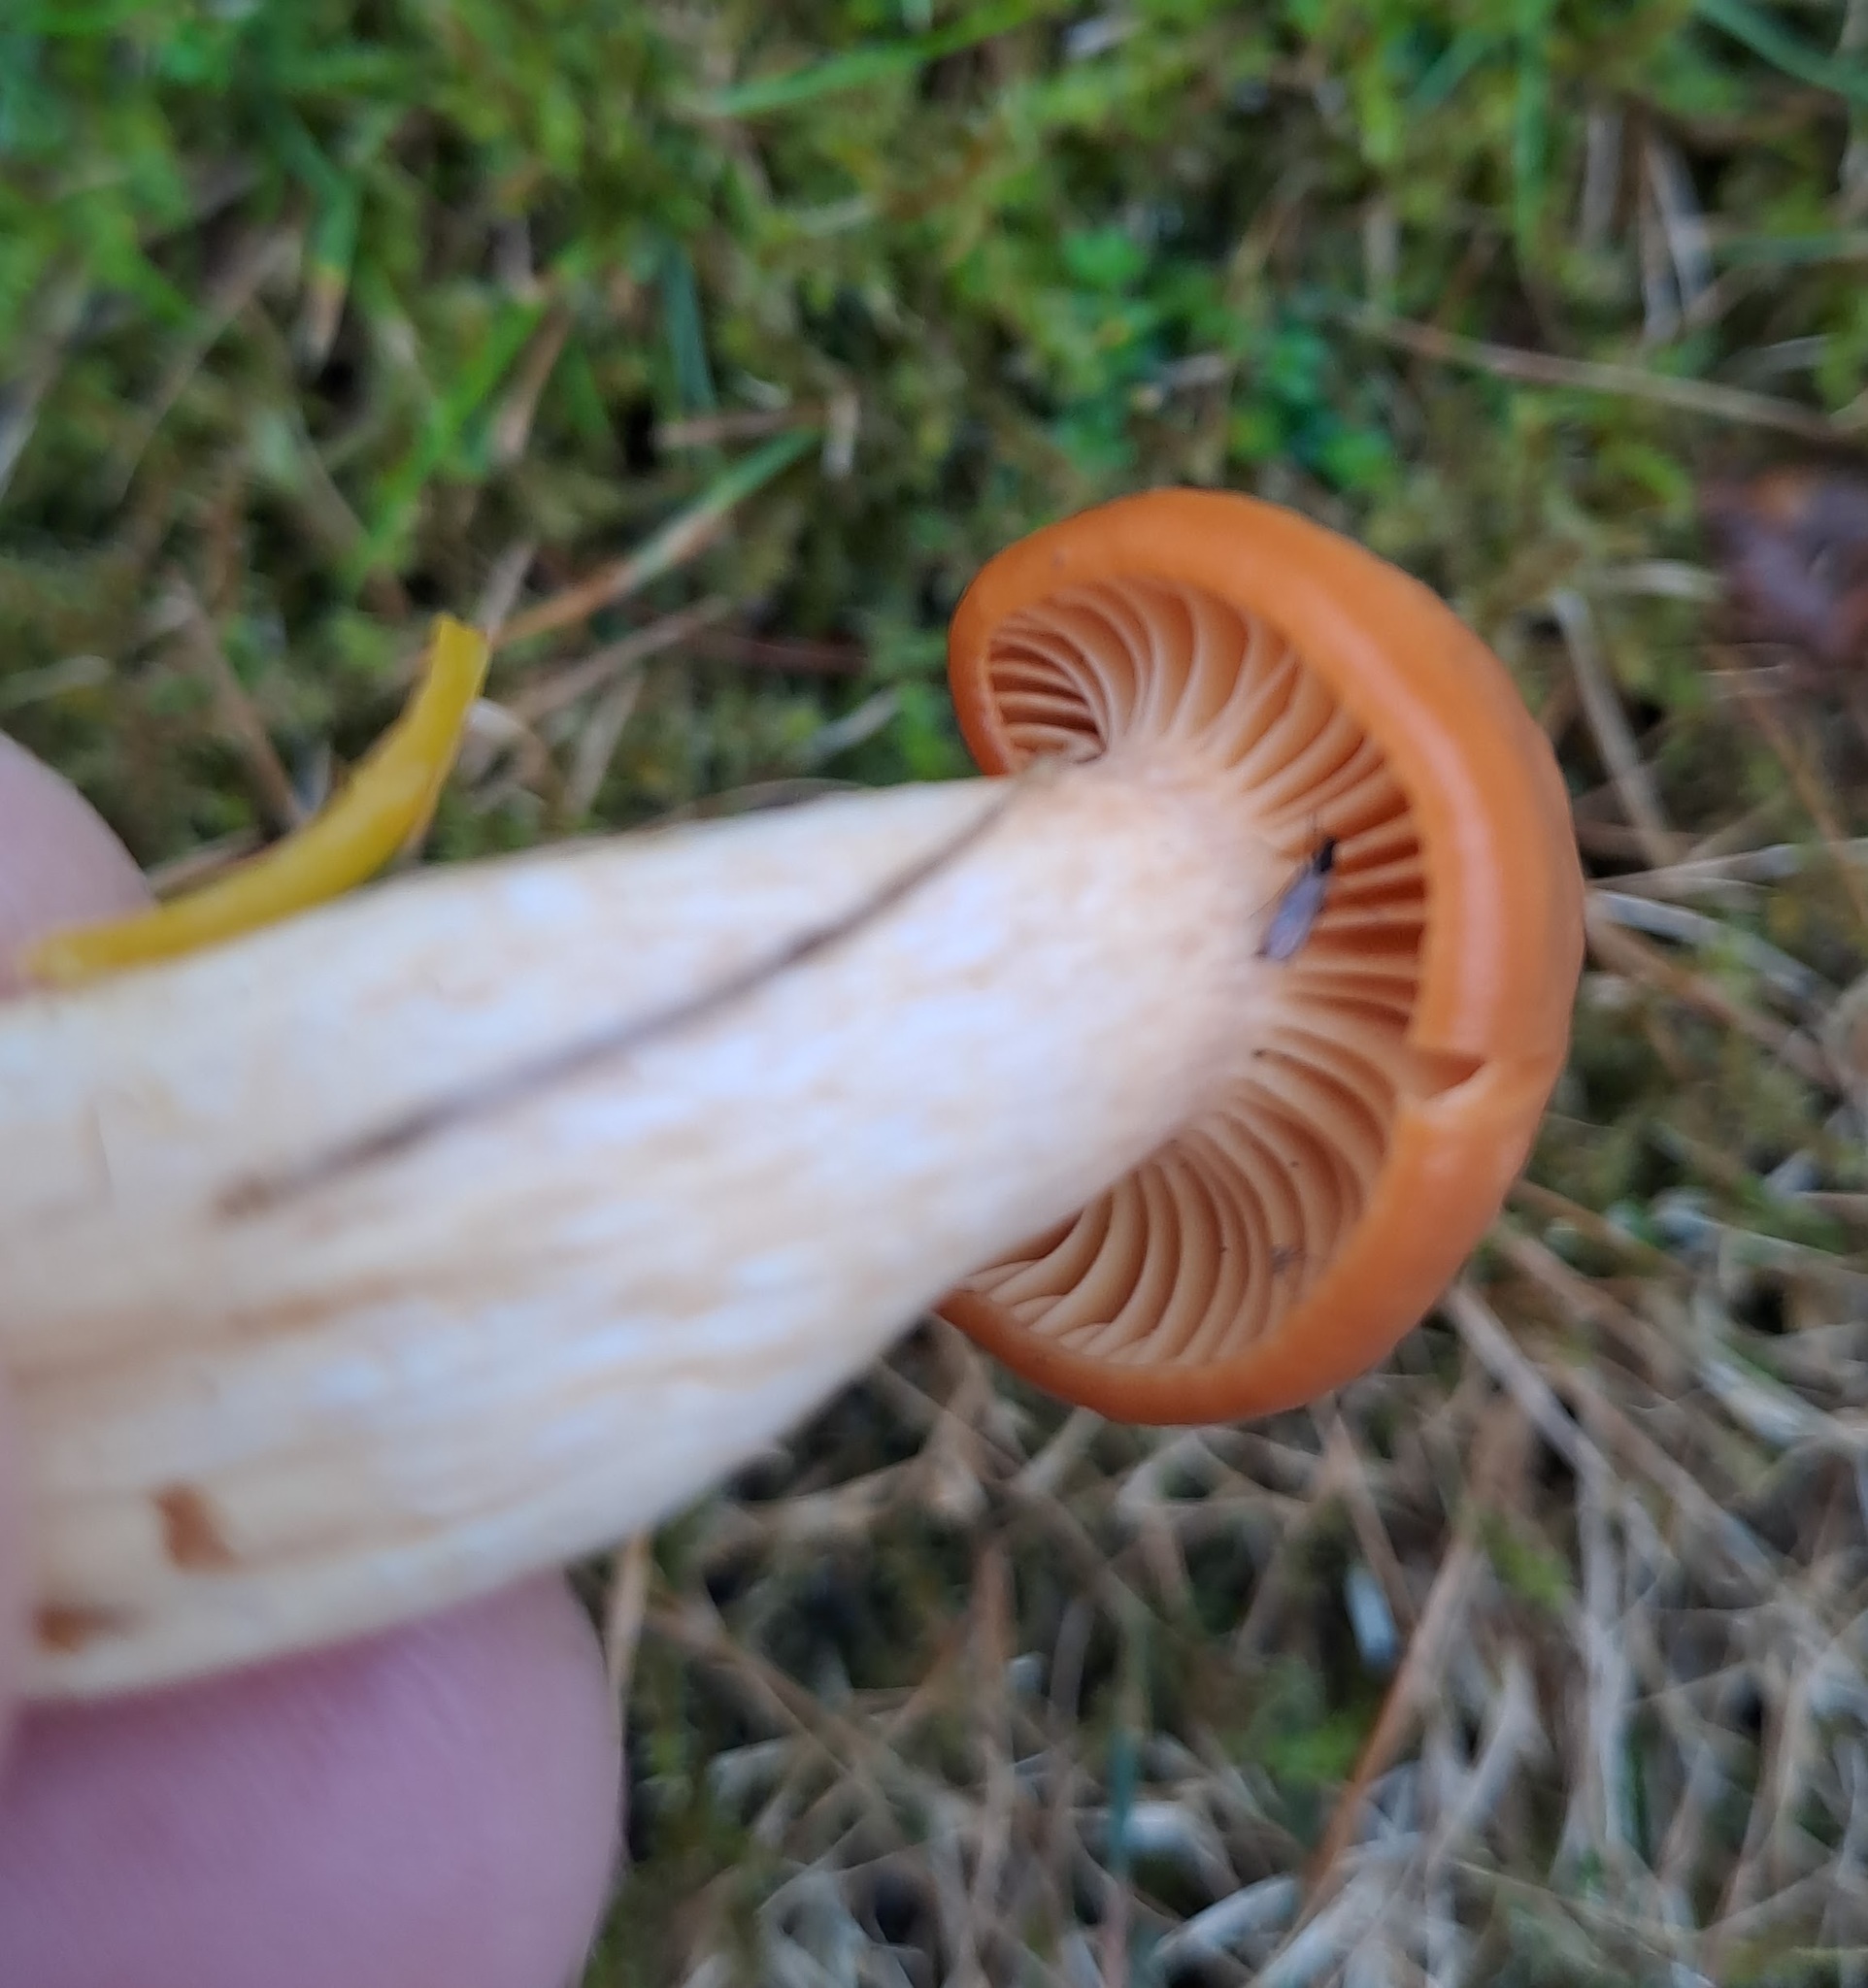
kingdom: Fungi
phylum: Basidiomycota
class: Agaricomycetes
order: Agaricales
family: Hygrophoraceae
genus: Cuphophyllus
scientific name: Cuphophyllus pratensis
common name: Meadow waxcap
